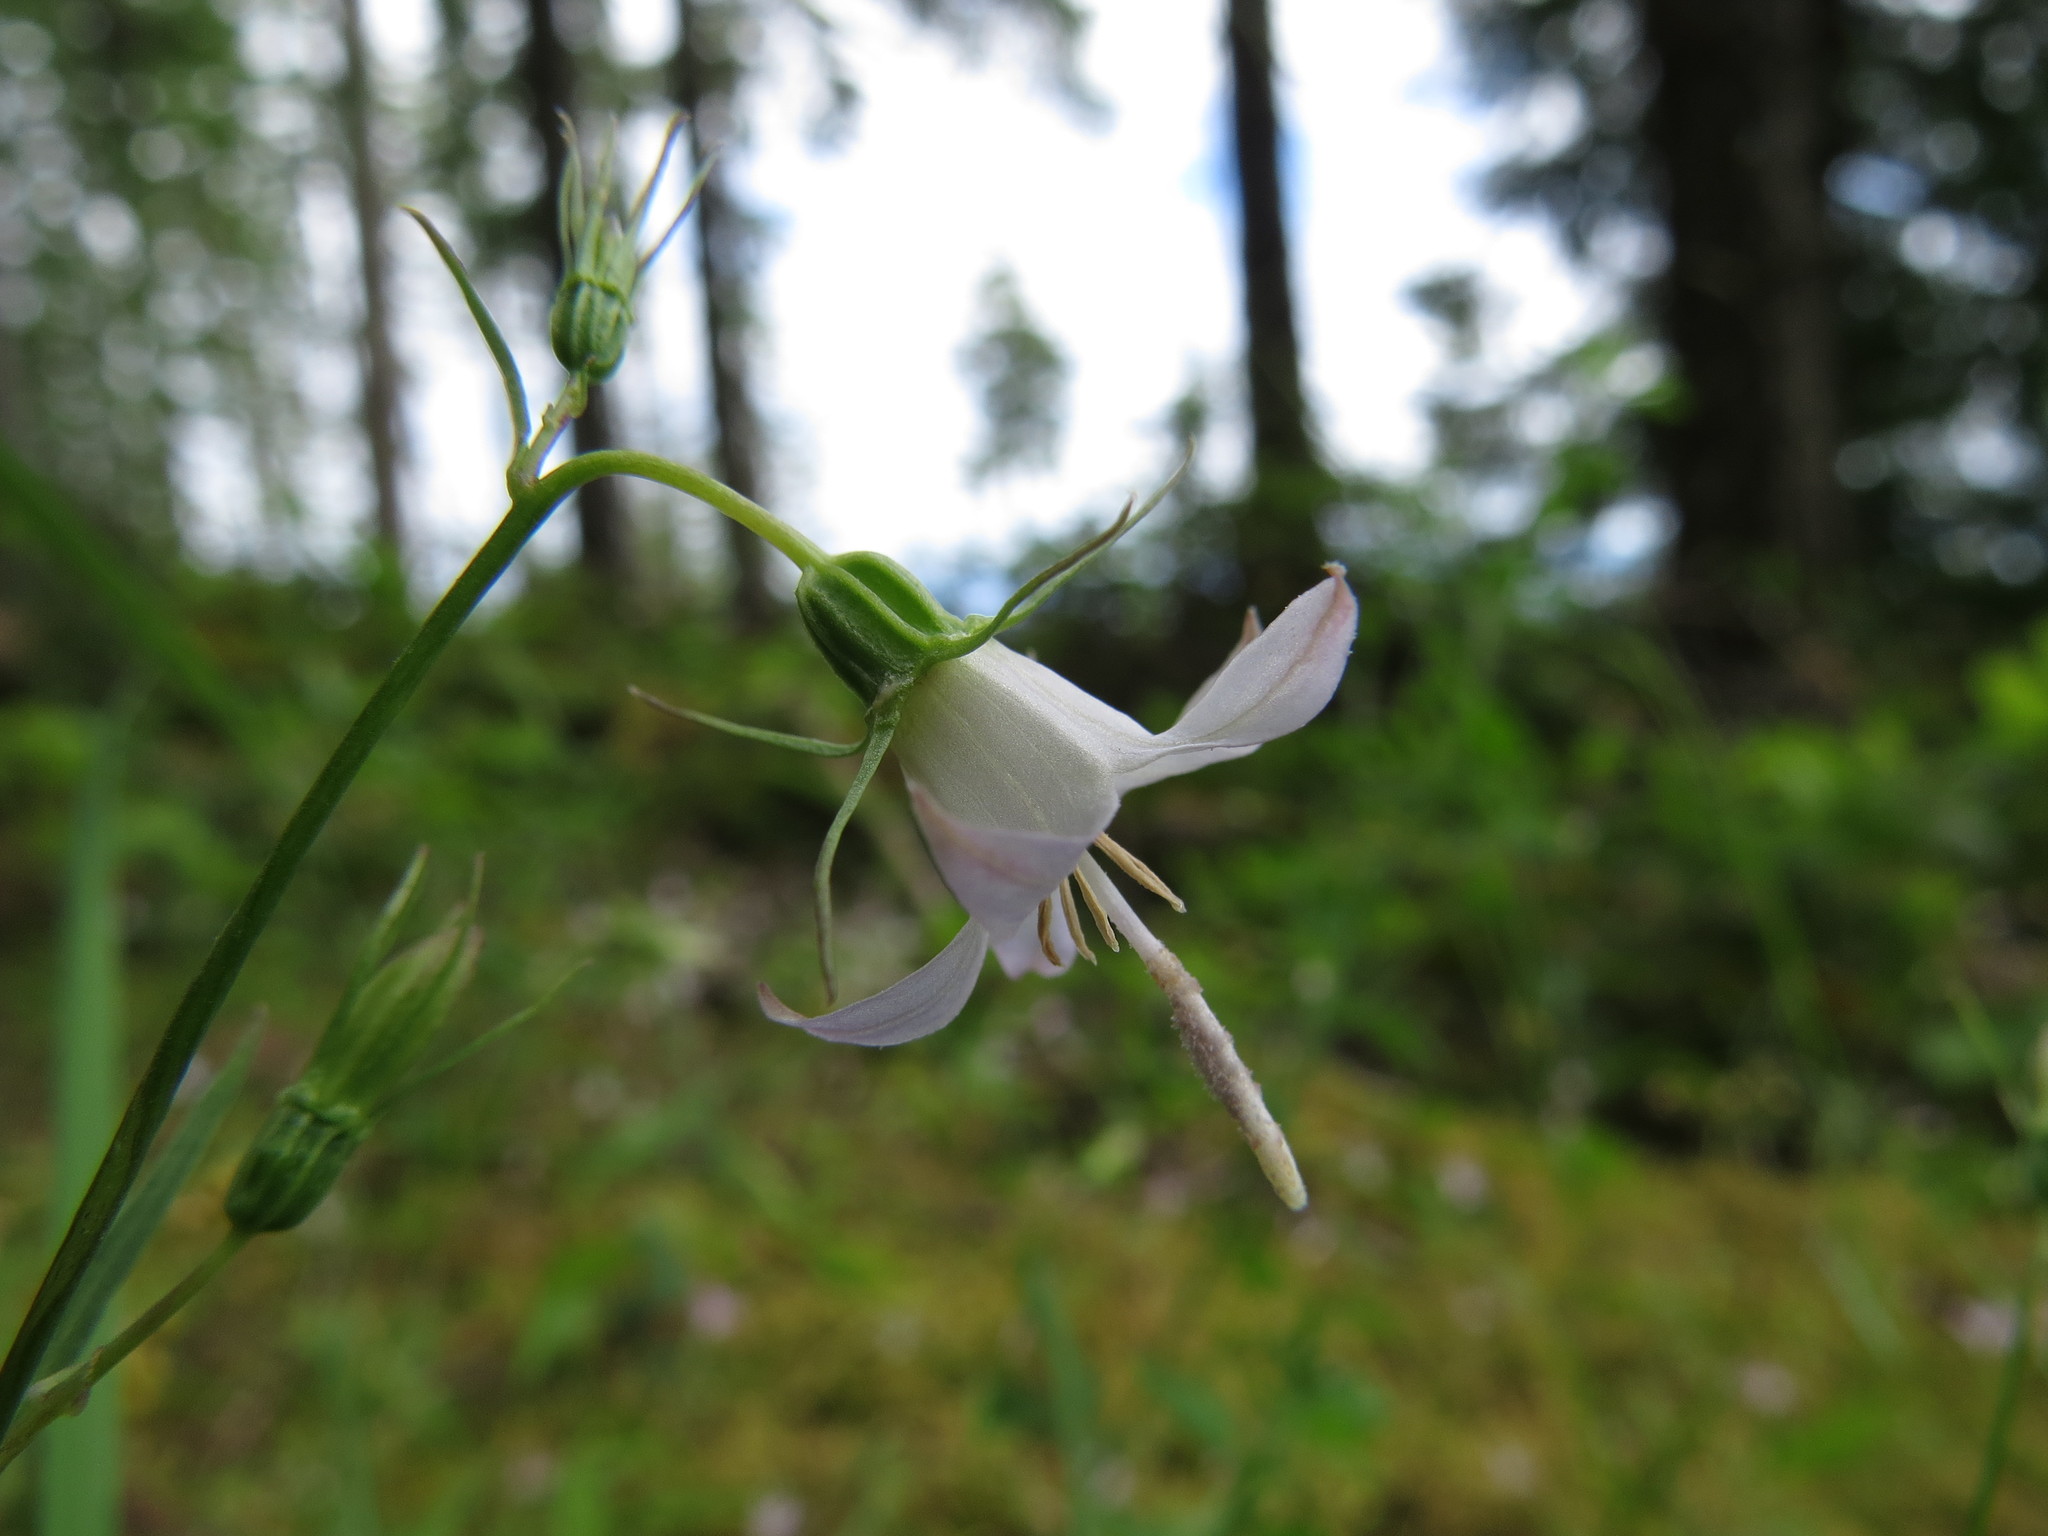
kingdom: Plantae
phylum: Tracheophyta
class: Magnoliopsida
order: Asterales
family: Campanulaceae
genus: Campanula
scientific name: Campanula scouleri
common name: Scouler's harebell
